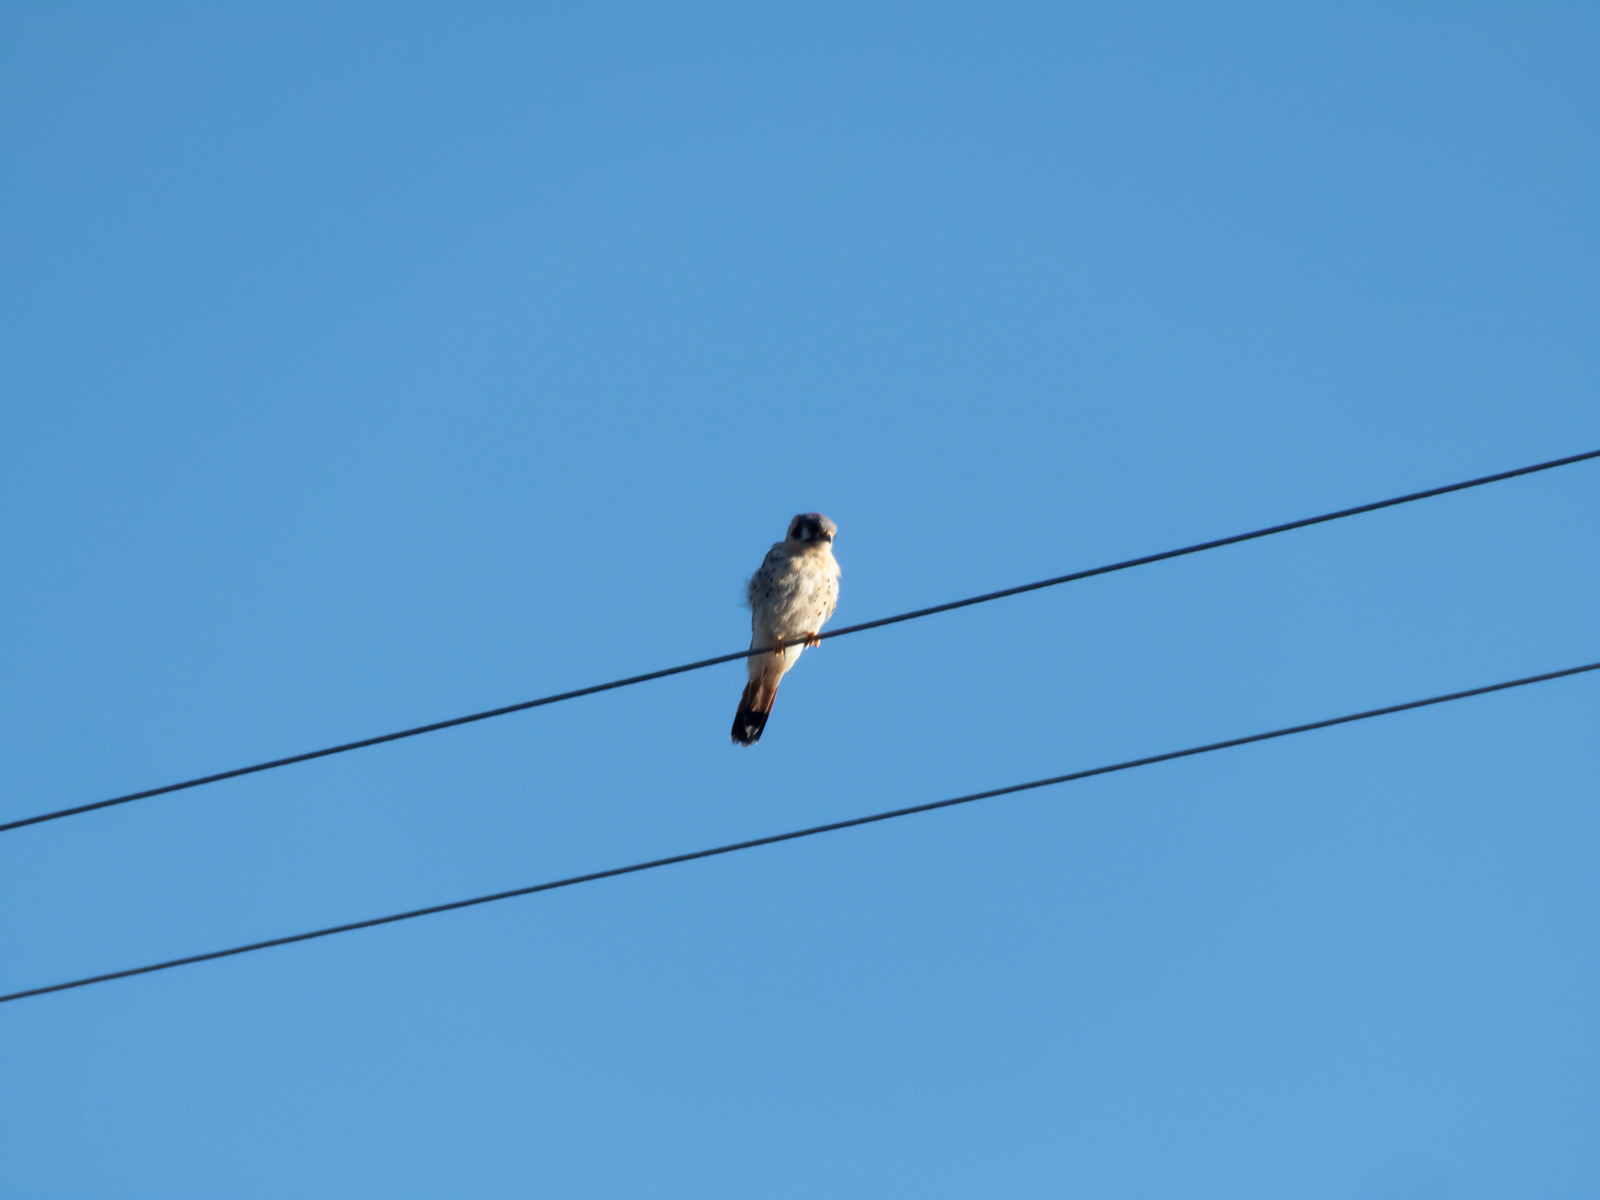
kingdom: Animalia
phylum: Chordata
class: Aves
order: Falconiformes
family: Falconidae
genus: Falco
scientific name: Falco sparverius
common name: American kestrel
